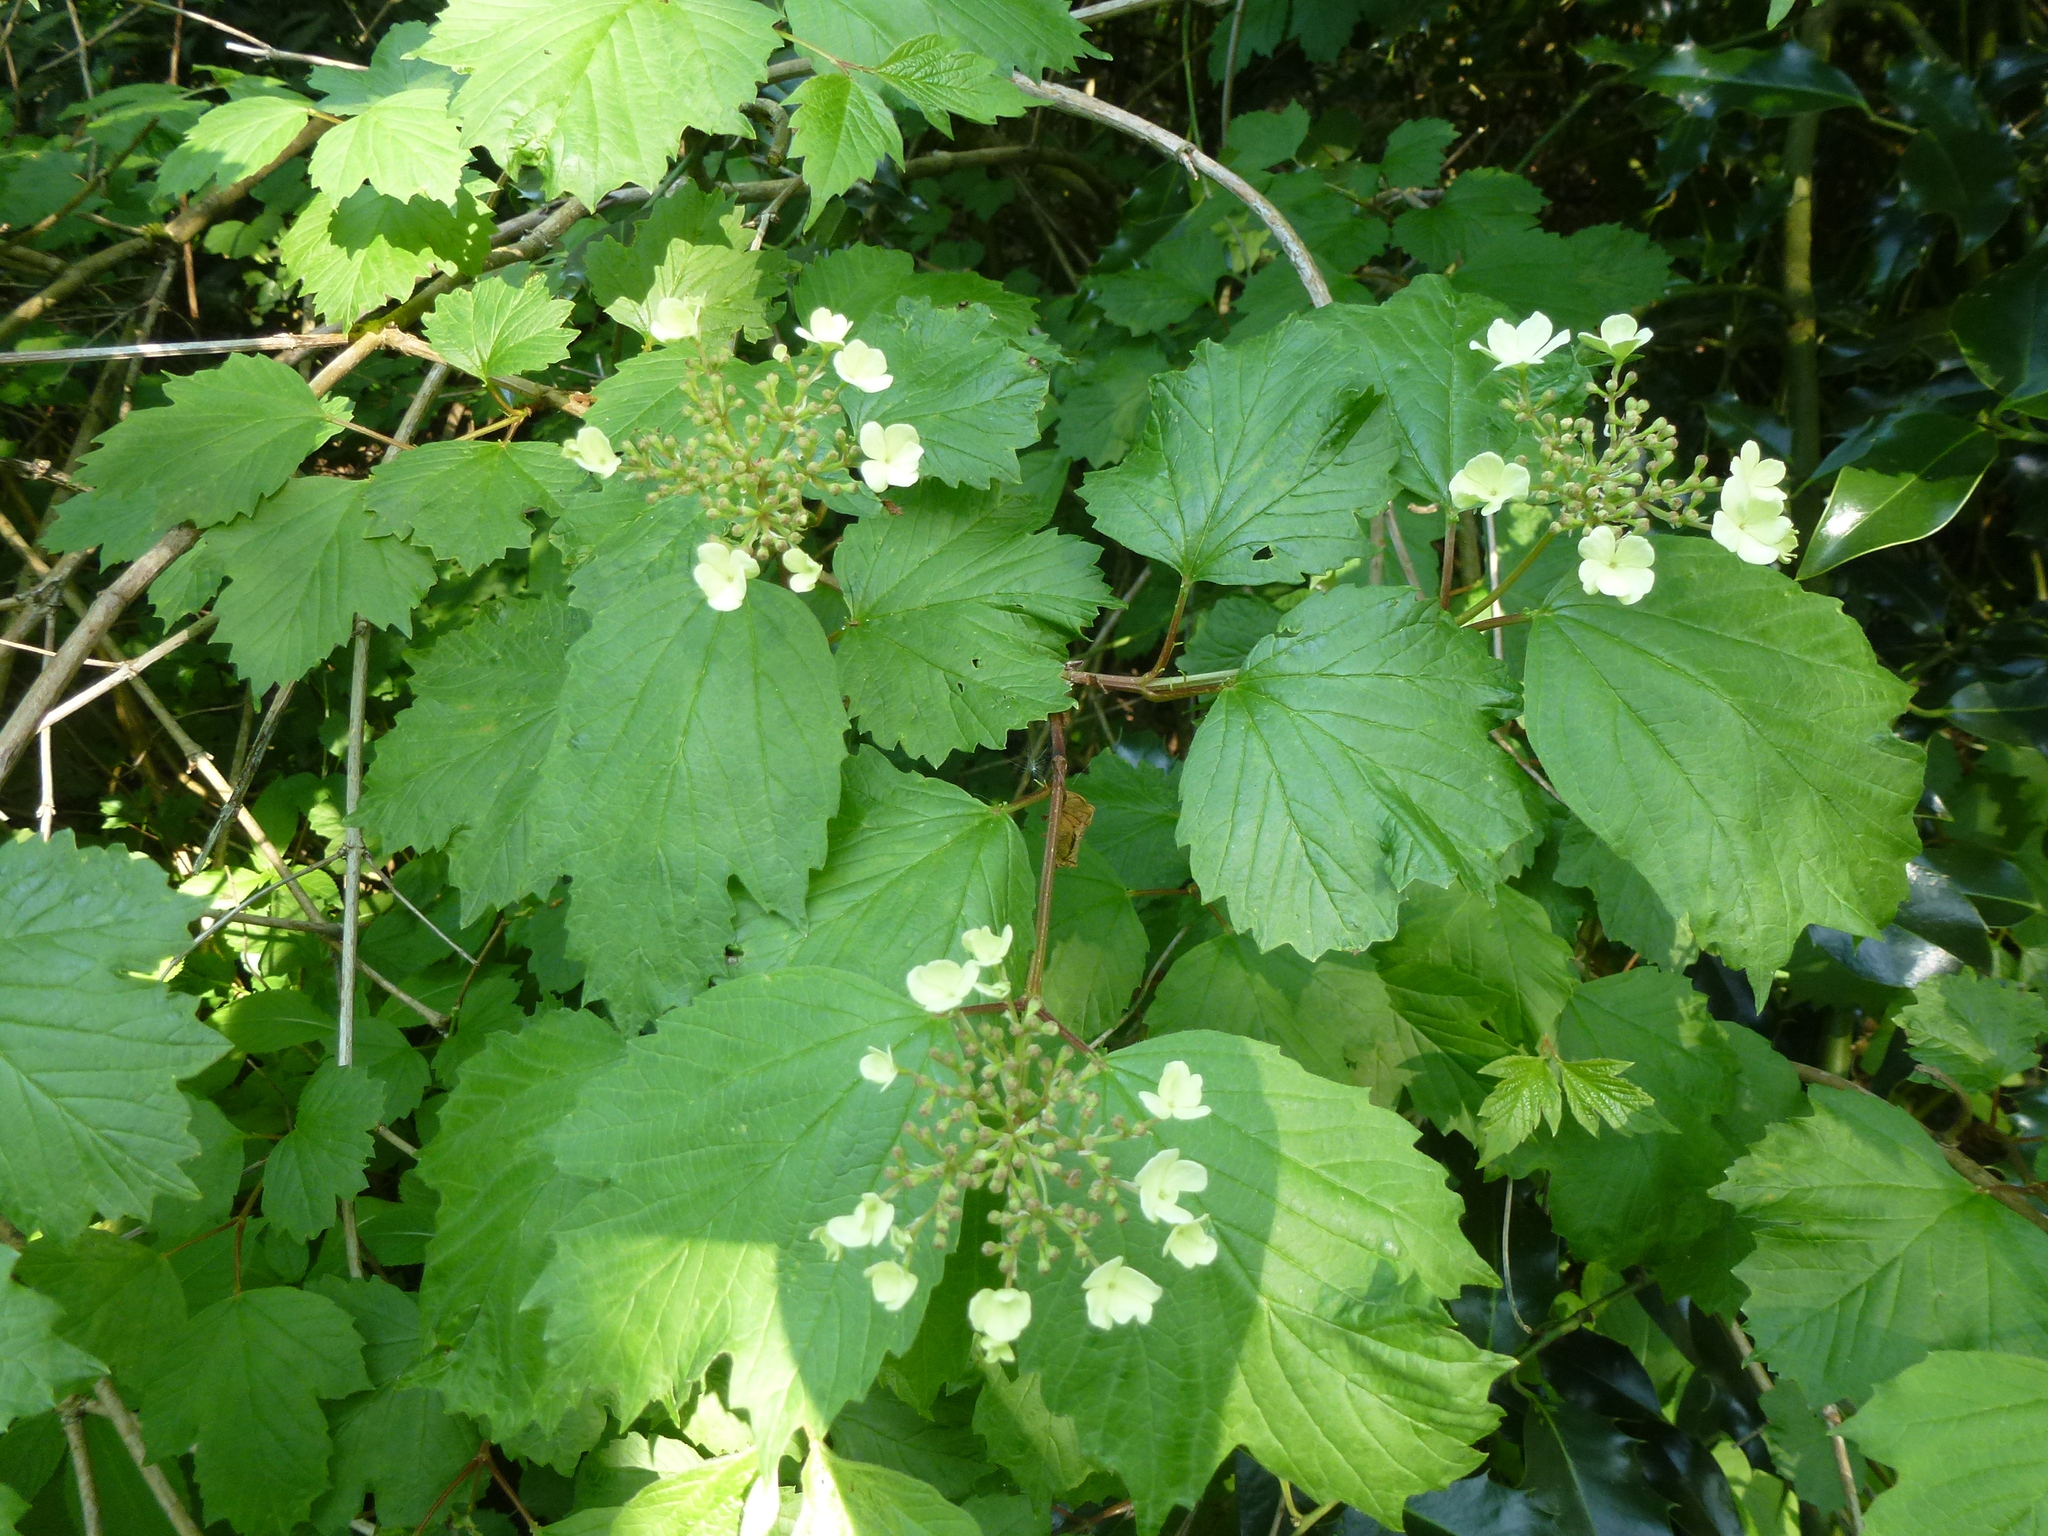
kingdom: Plantae
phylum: Tracheophyta
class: Magnoliopsida
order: Dipsacales
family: Viburnaceae
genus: Viburnum
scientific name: Viburnum opulus
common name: Guelder-rose
